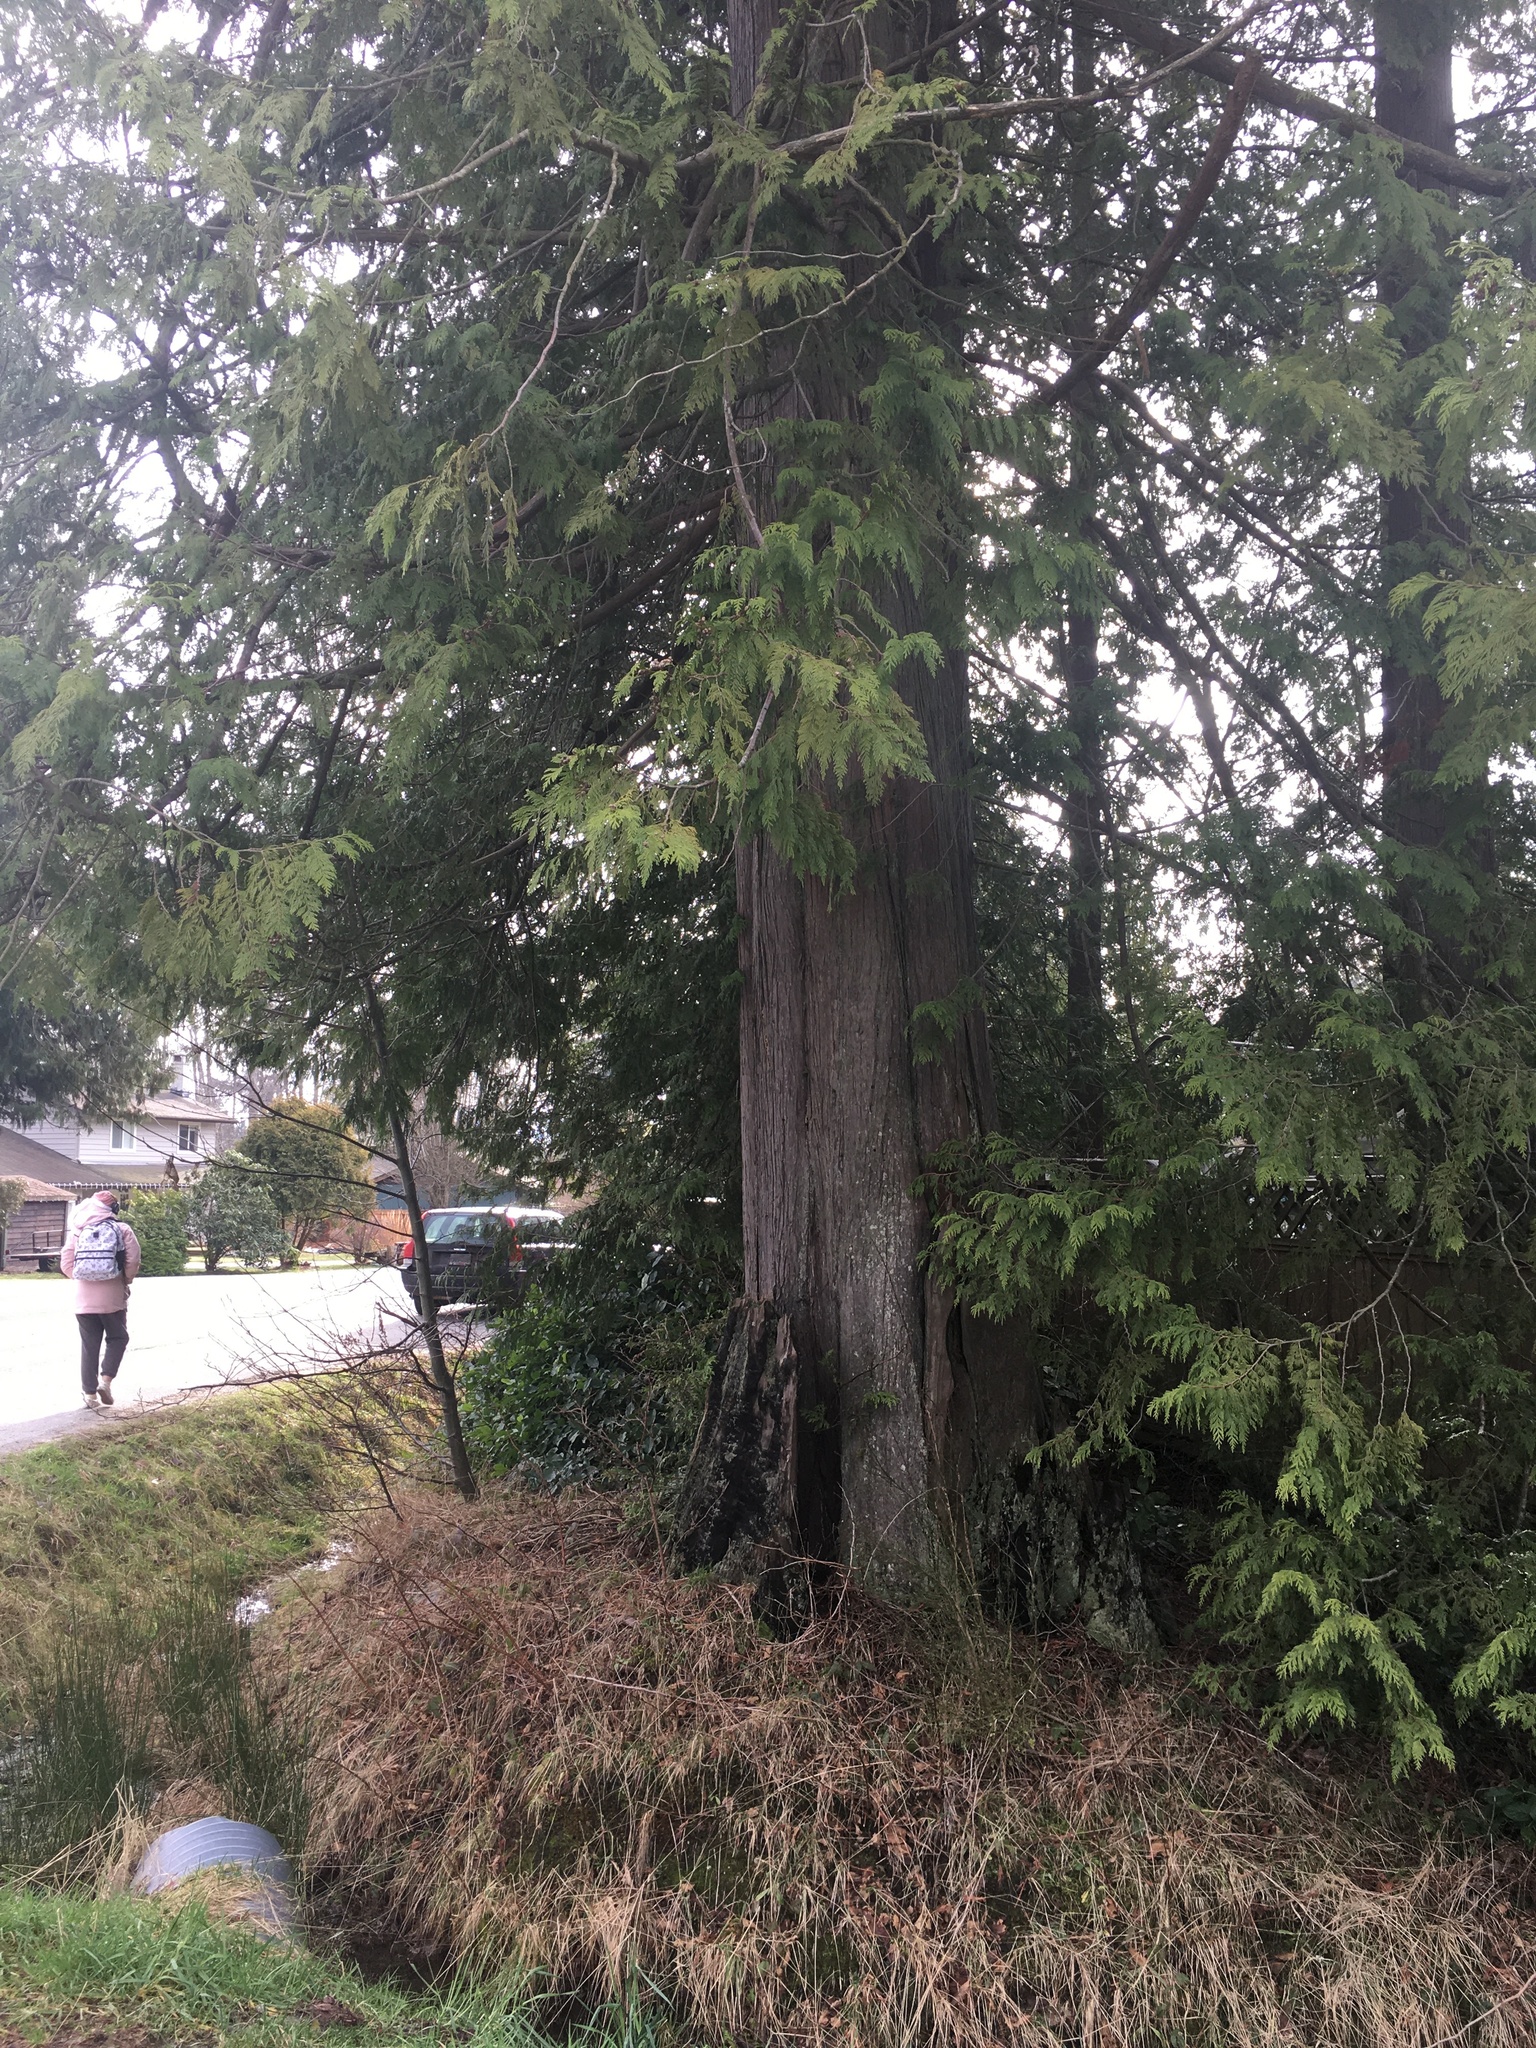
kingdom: Plantae
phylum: Tracheophyta
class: Pinopsida
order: Pinales
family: Cupressaceae
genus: Thuja
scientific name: Thuja plicata
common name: Western red-cedar
